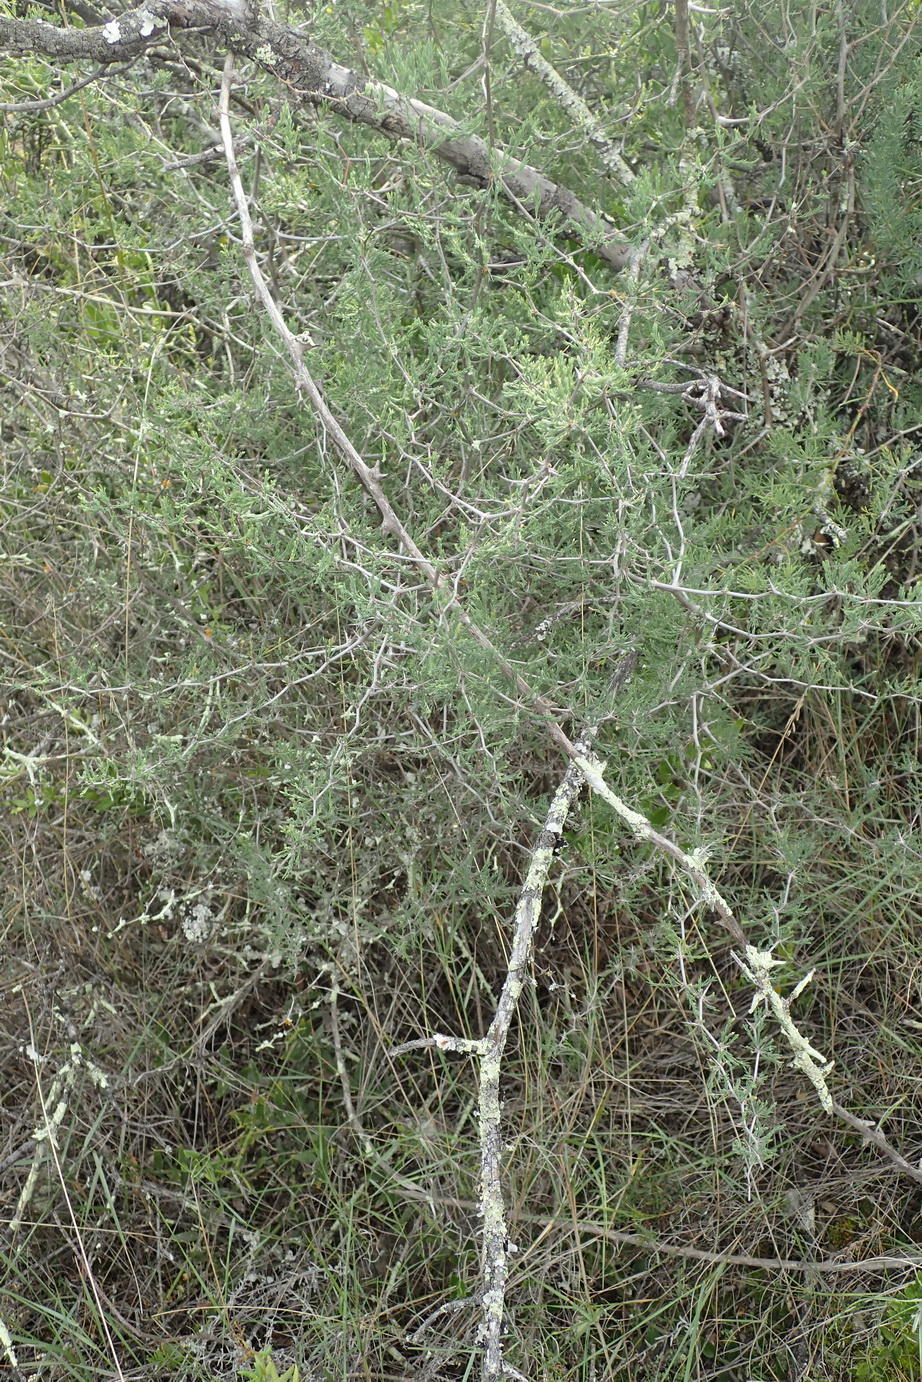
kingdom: Plantae
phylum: Tracheophyta
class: Liliopsida
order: Asparagales
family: Asparagaceae
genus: Asparagus
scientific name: Asparagus capensis
